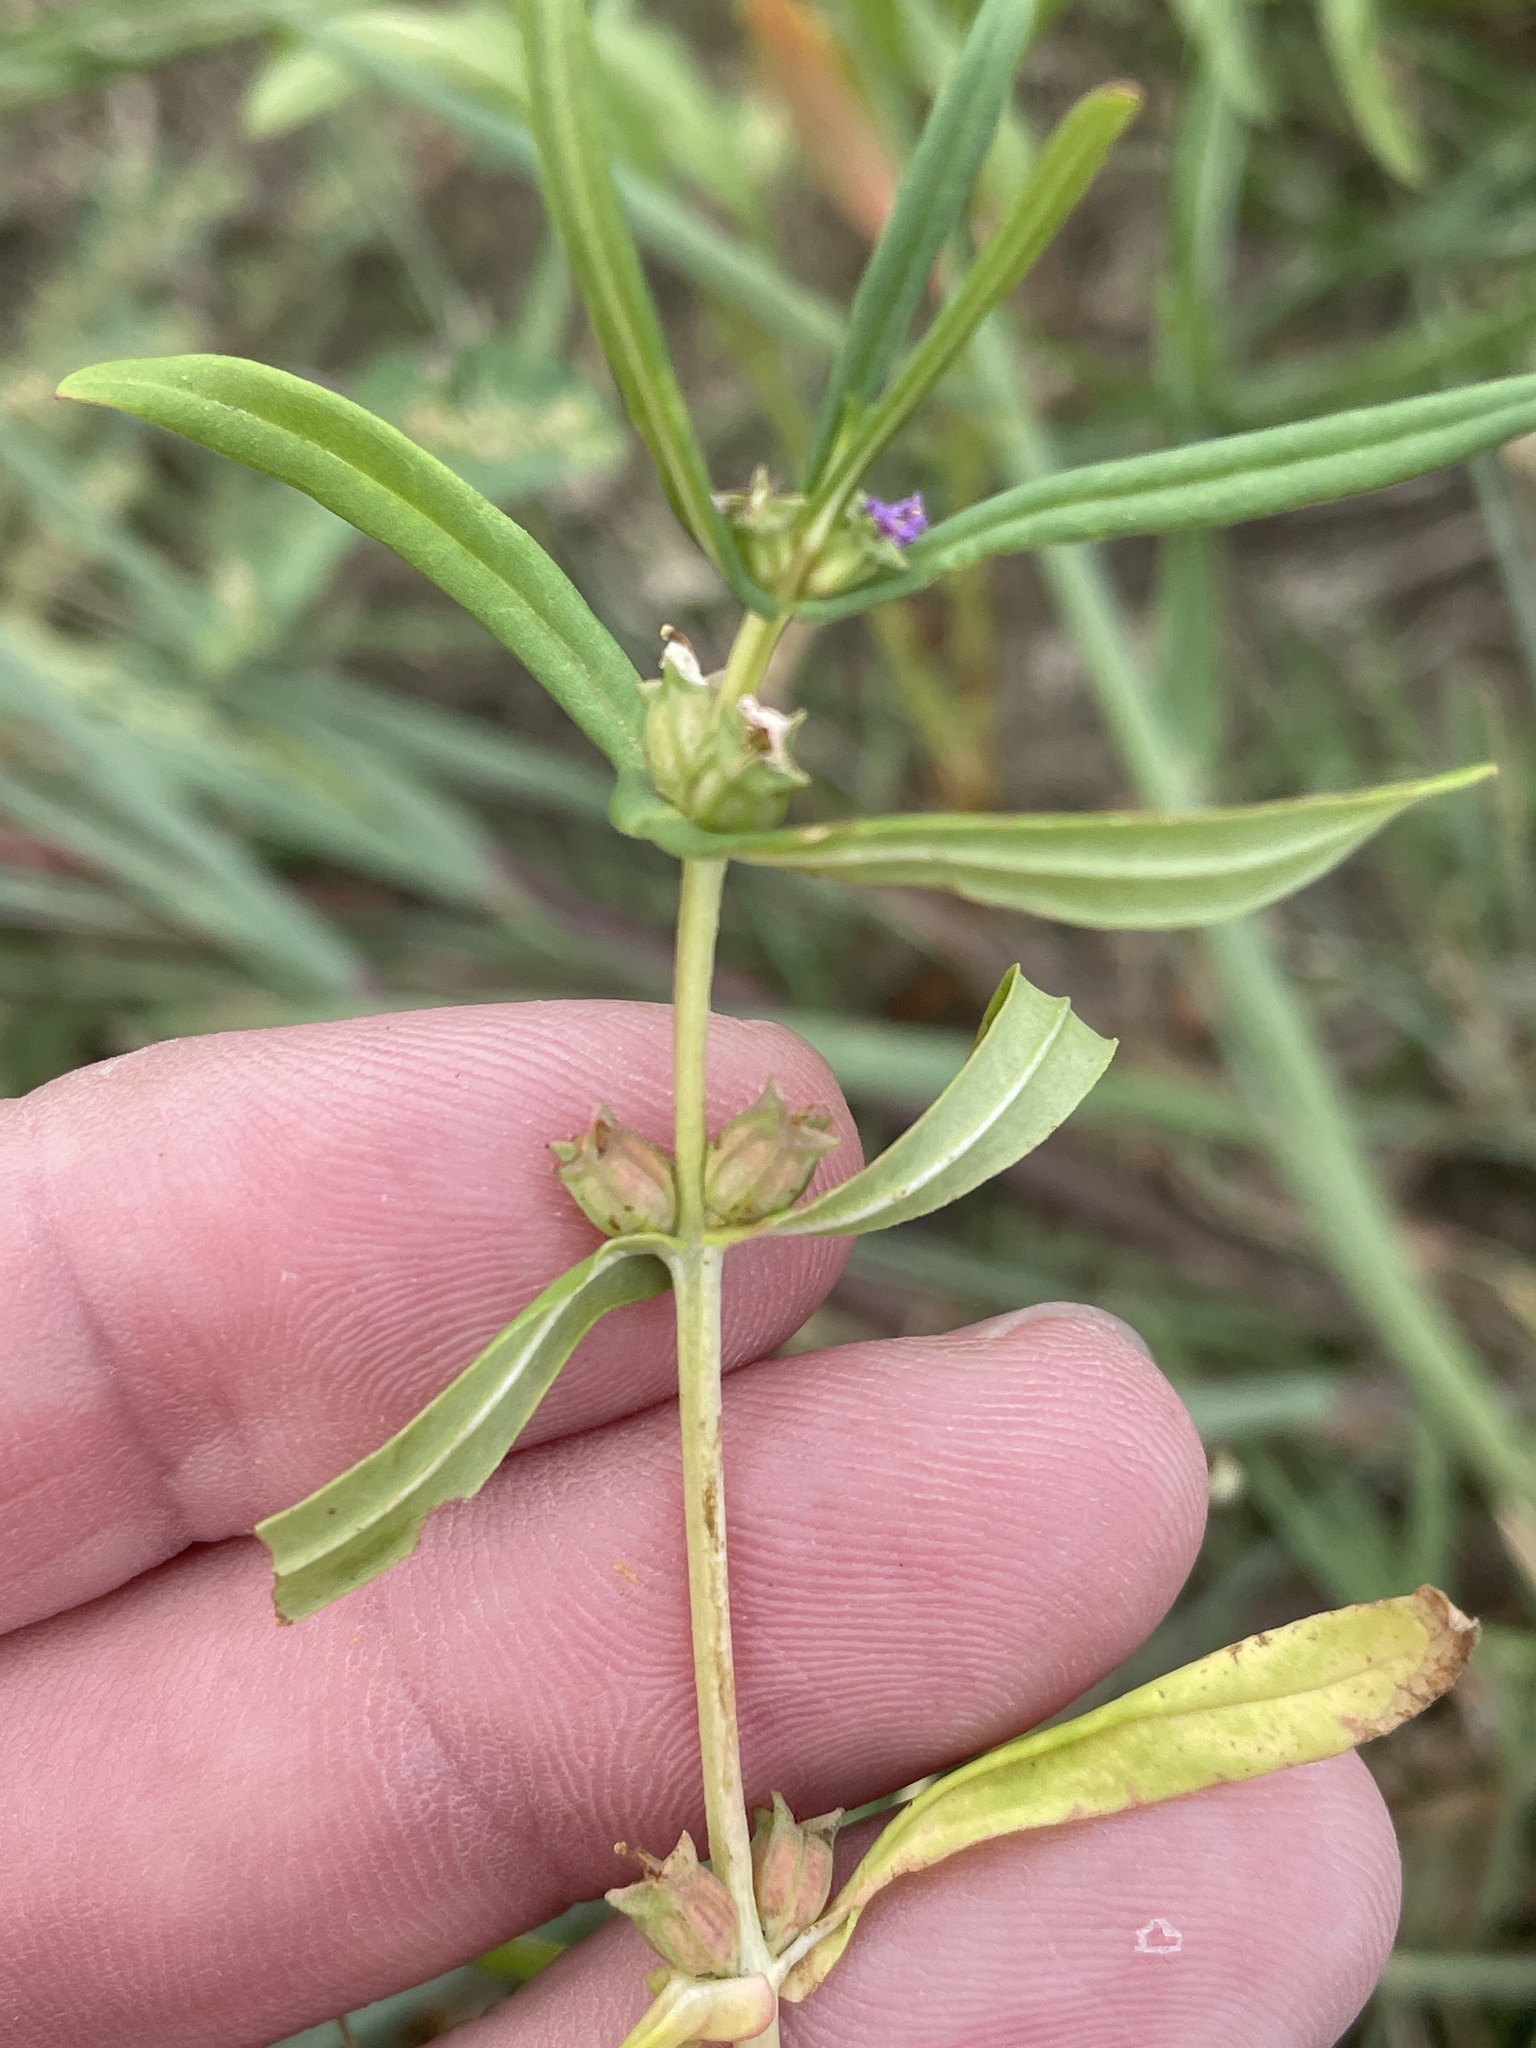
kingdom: Plantae
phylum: Tracheophyta
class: Magnoliopsida
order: Myrtales
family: Lythraceae
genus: Rotala
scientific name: Rotala ramosior
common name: Lowland rotala
